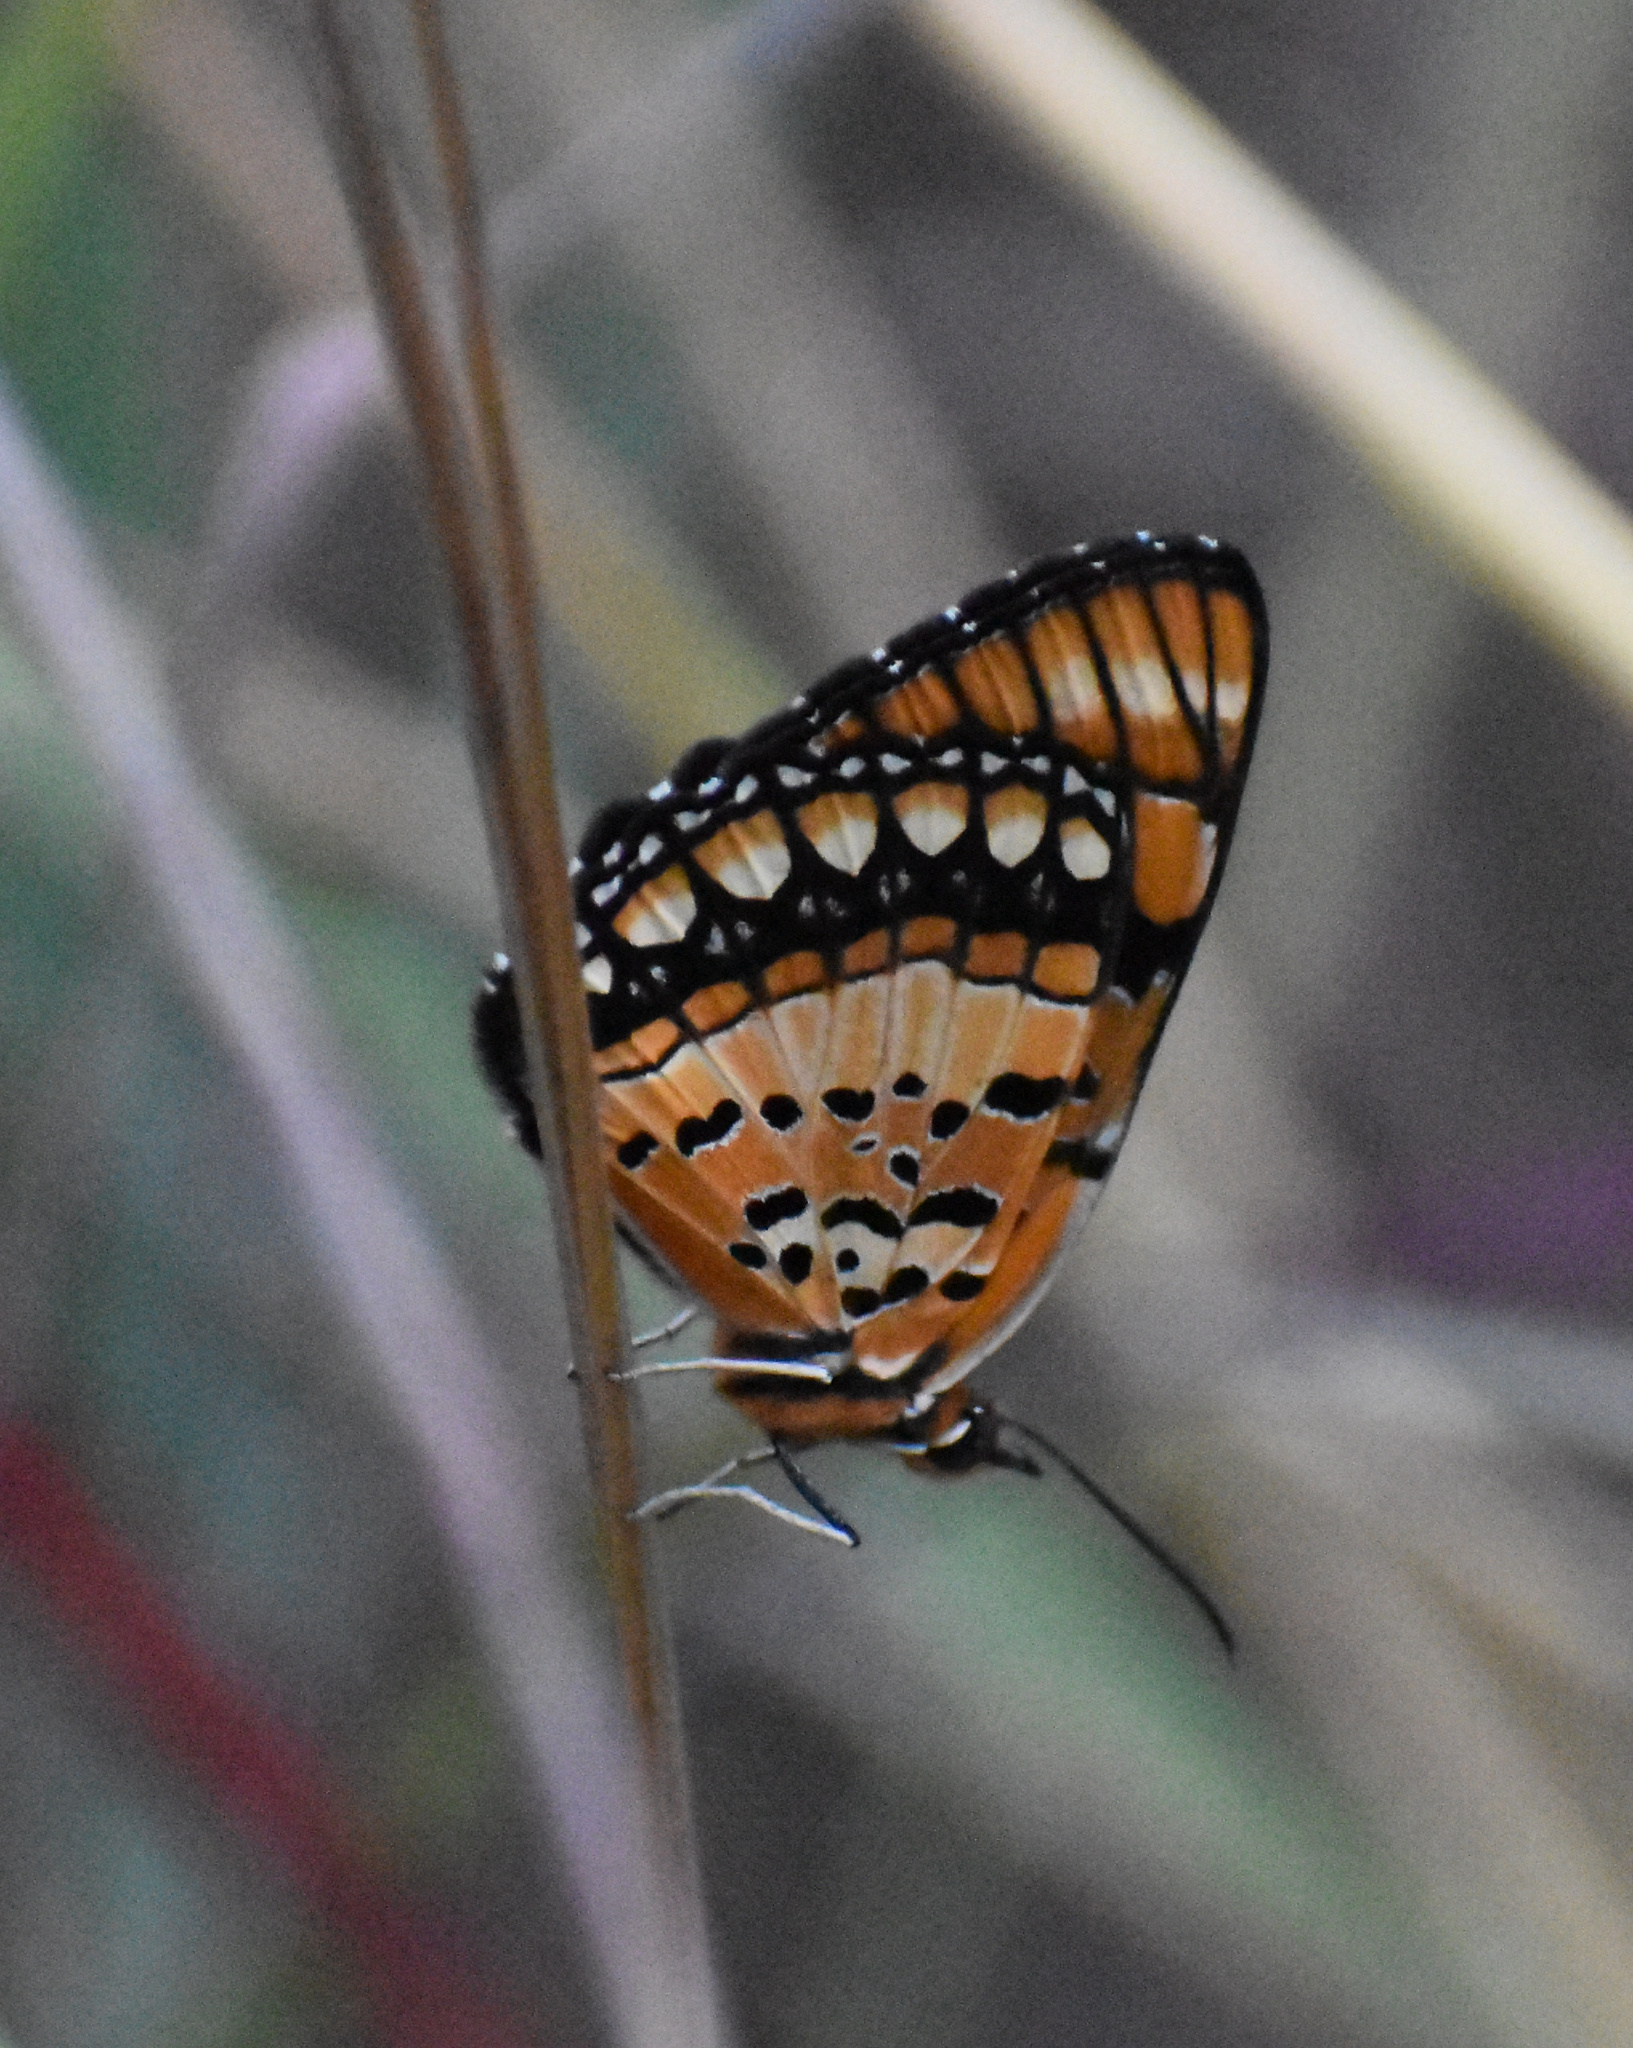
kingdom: Animalia
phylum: Arthropoda
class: Insecta
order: Lepidoptera
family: Nymphalidae
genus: Byblia
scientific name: Byblia anvatara
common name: African joker
